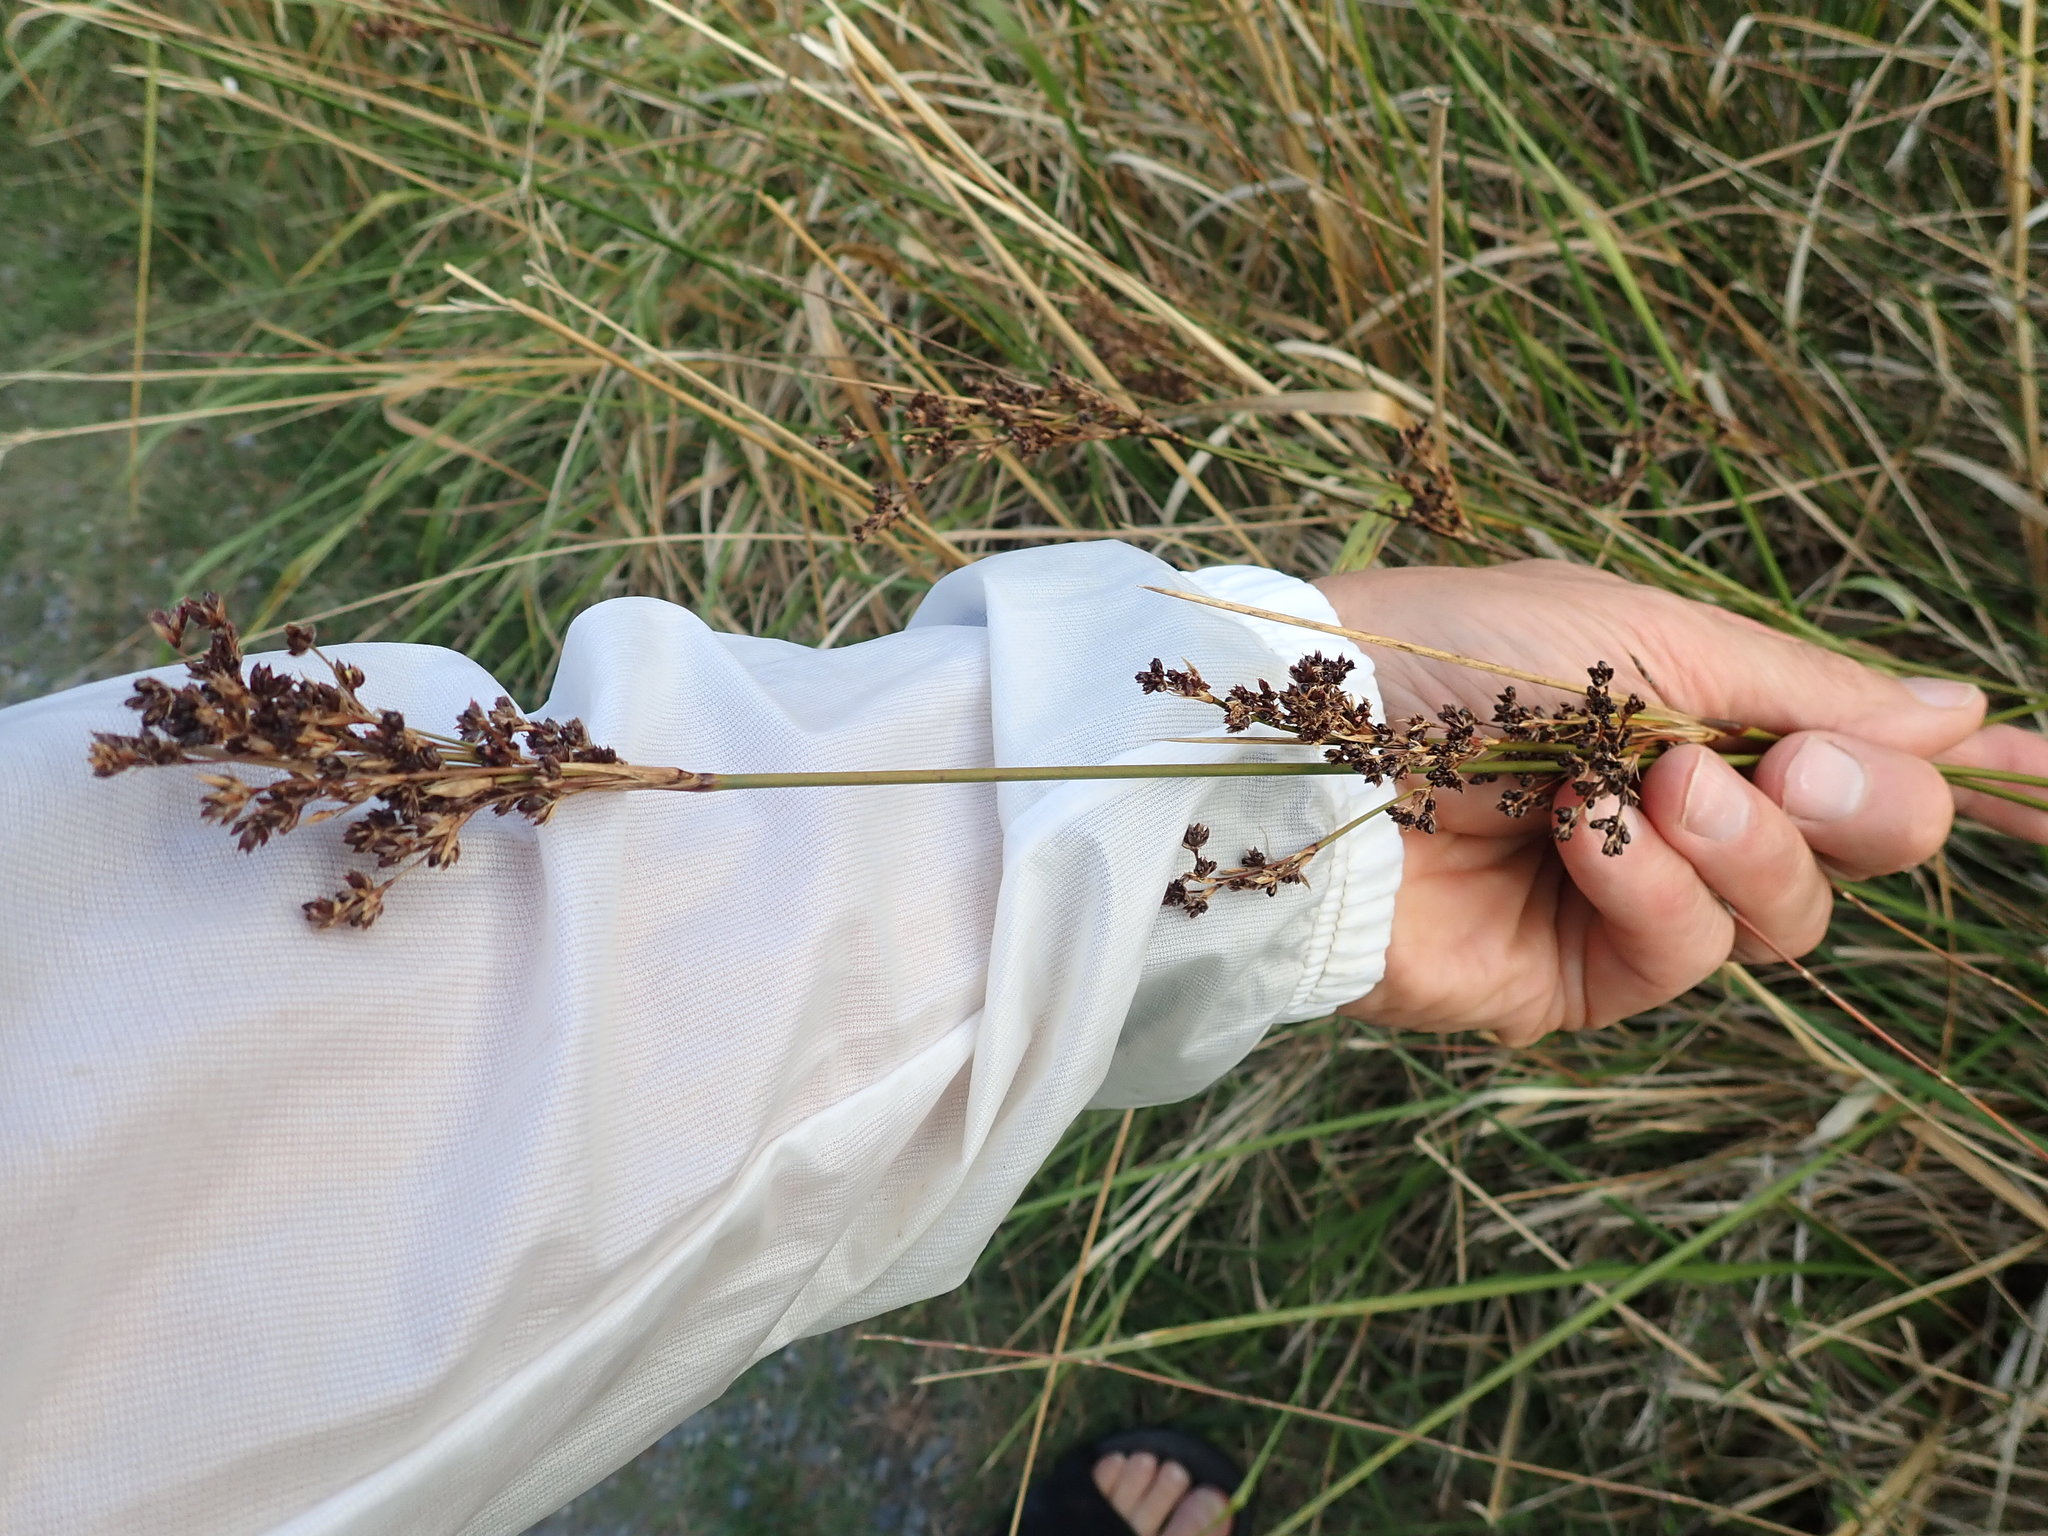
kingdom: Plantae
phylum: Tracheophyta
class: Liliopsida
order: Poales
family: Juncaceae
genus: Juncus
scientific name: Juncus kraussii
